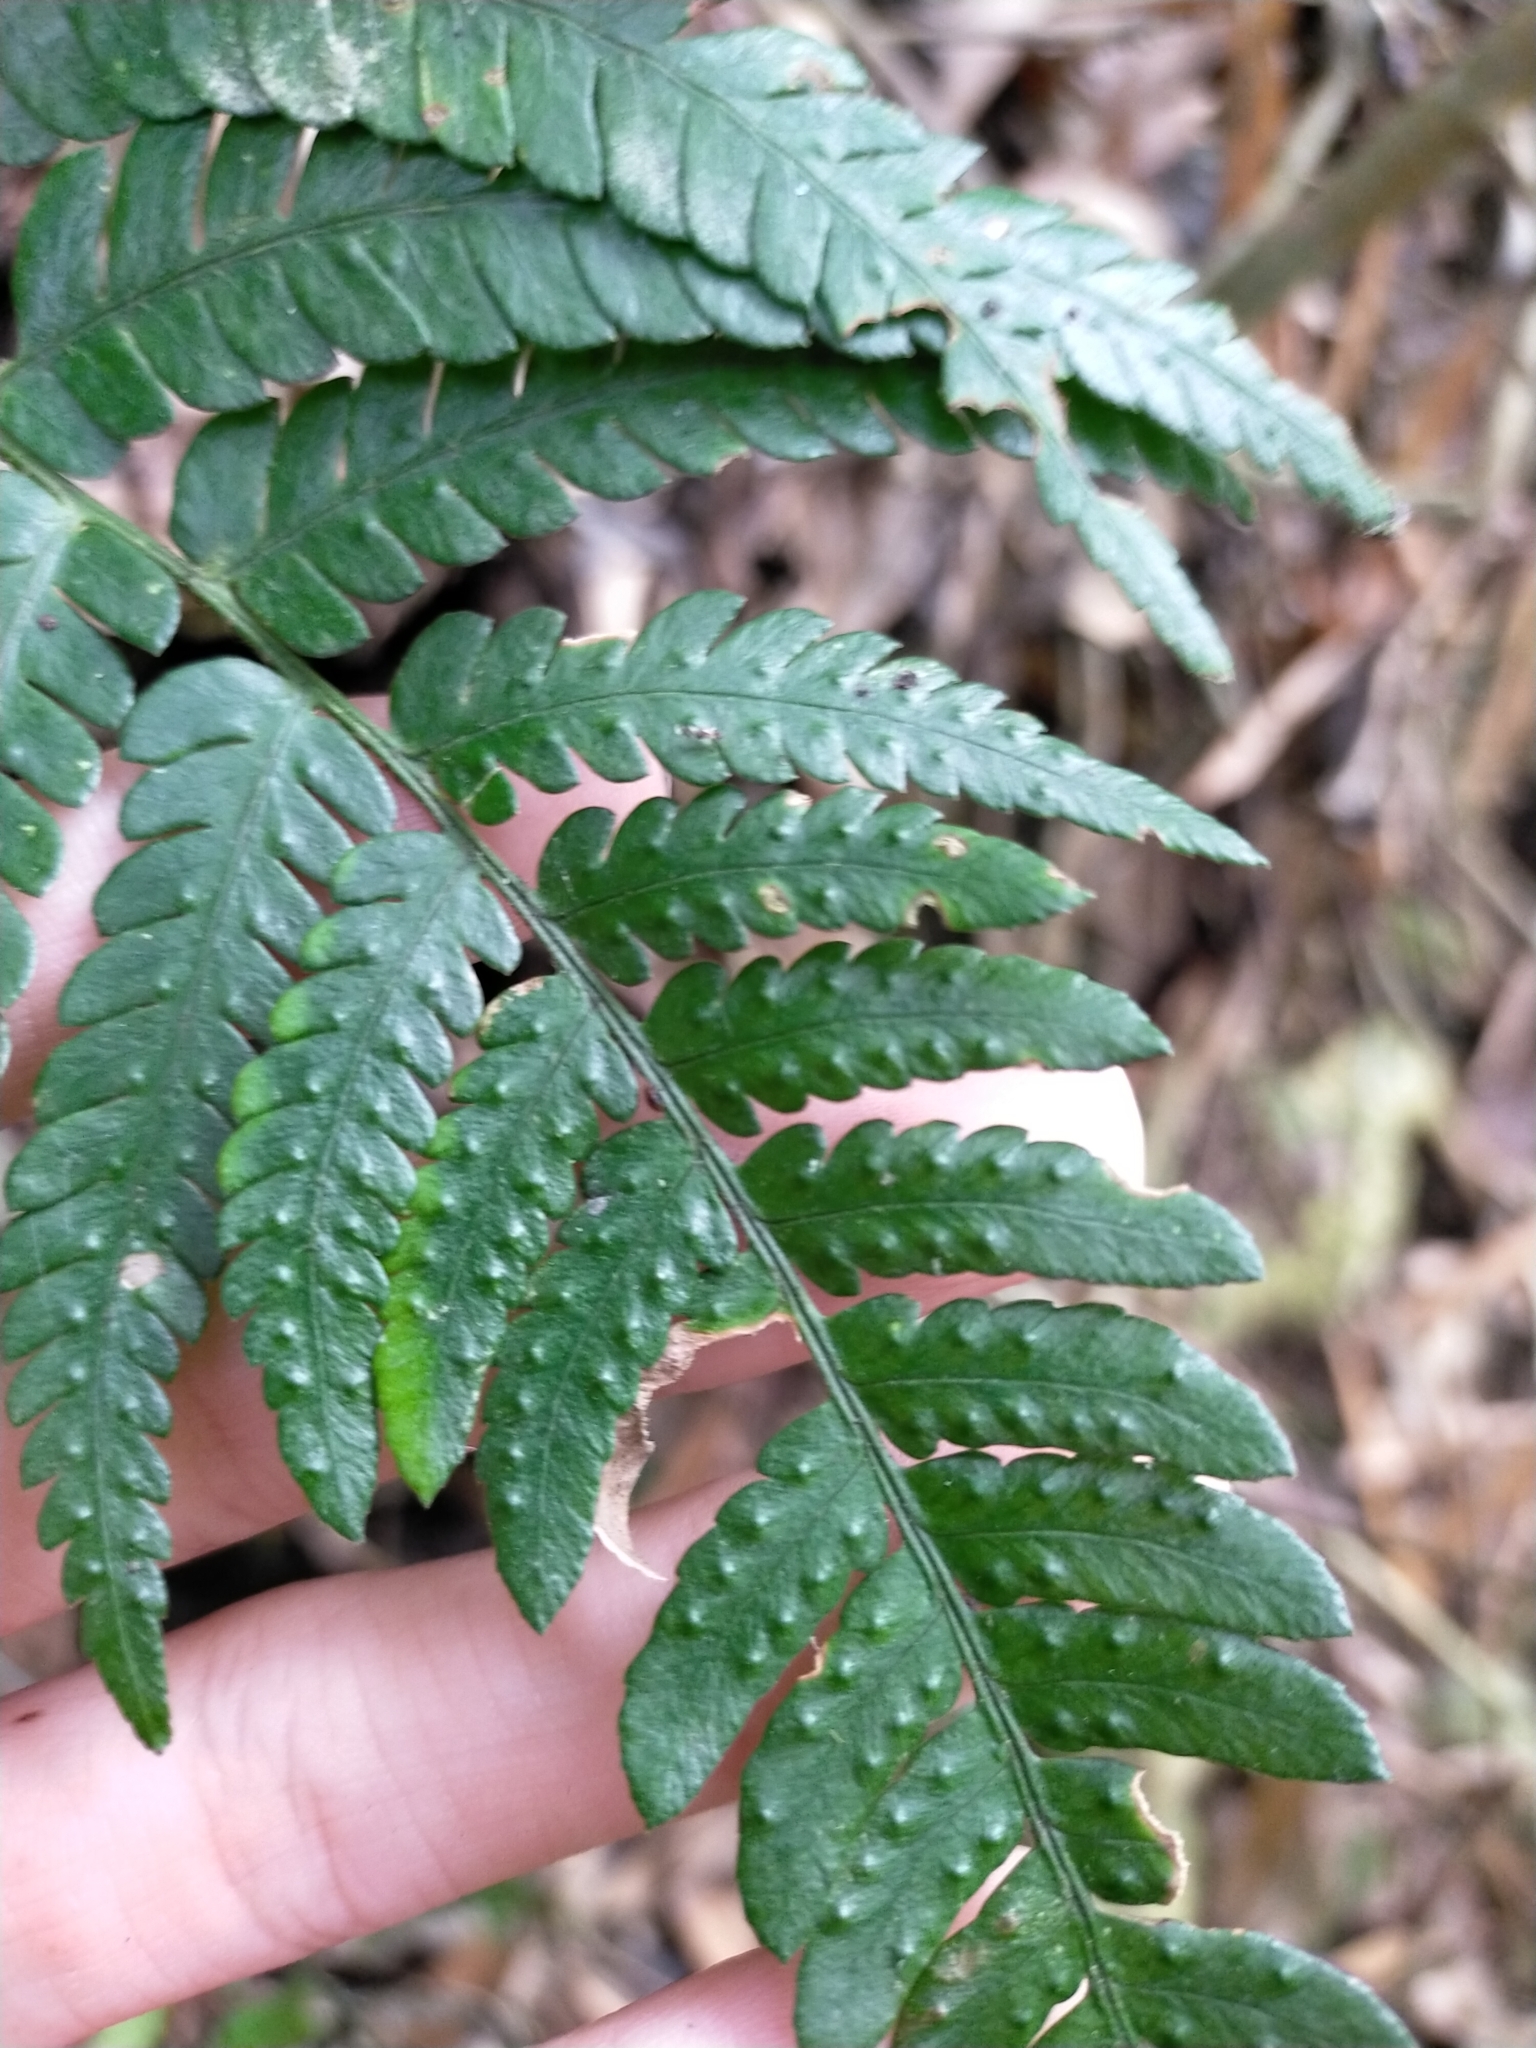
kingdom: Plantae
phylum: Tracheophyta
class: Polypodiopsida
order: Polypodiales
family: Dryopteridaceae
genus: Dryopteris
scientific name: Dryopteris varia
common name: Japanese holly fern
